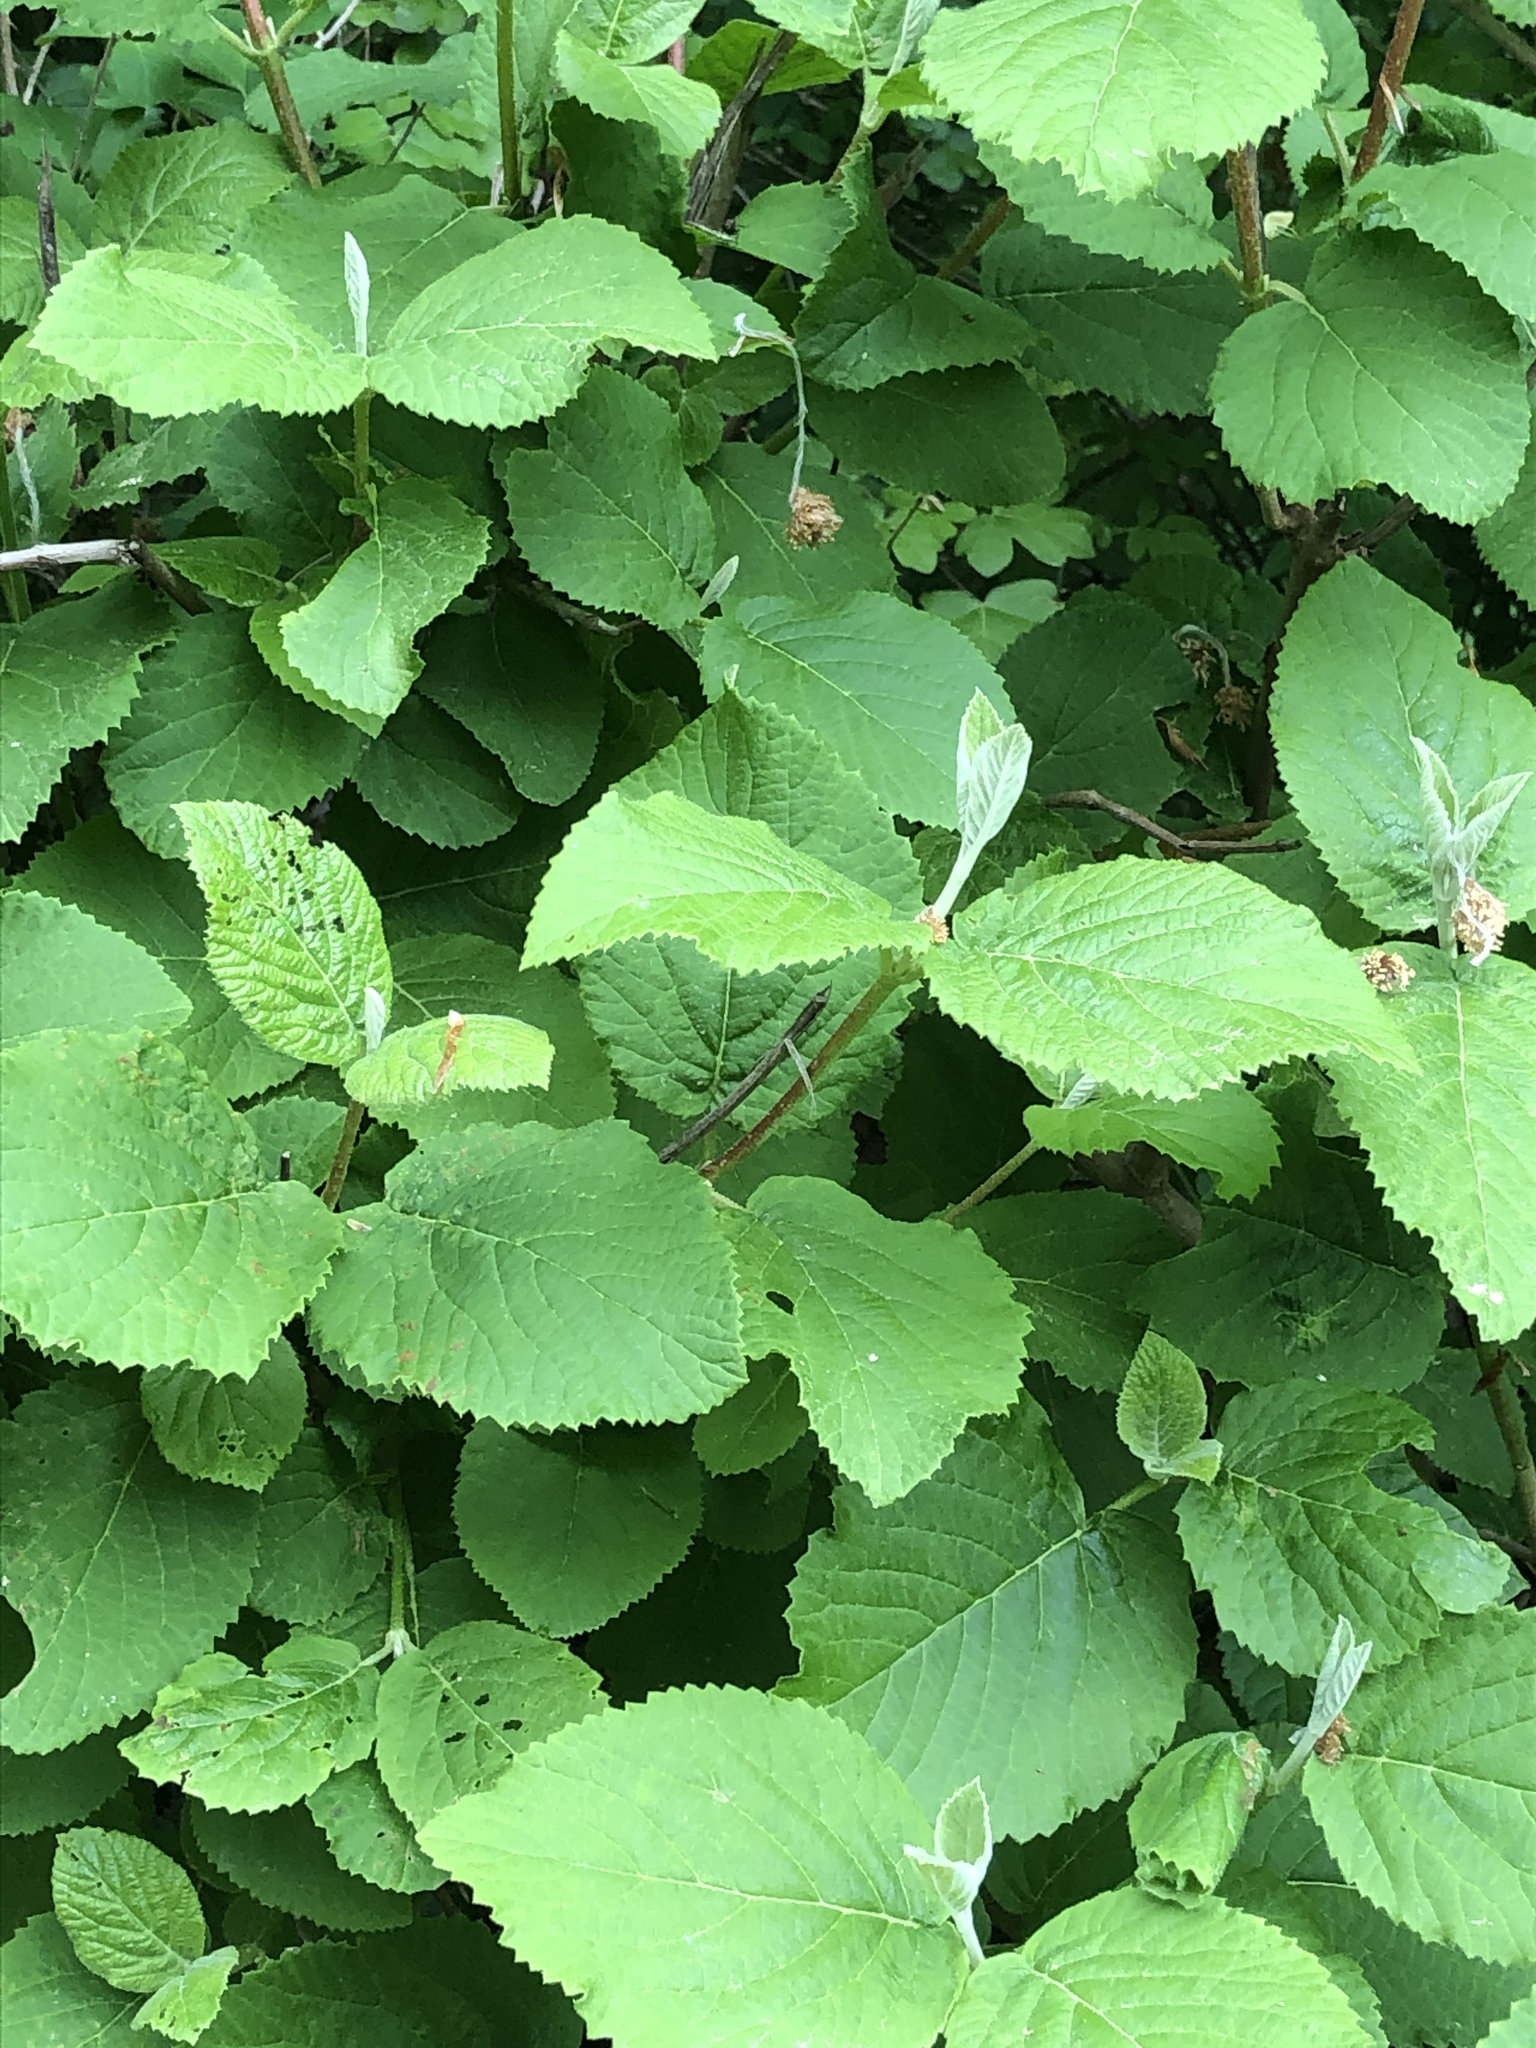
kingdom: Plantae
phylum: Tracheophyta
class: Magnoliopsida
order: Dipsacales
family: Viburnaceae
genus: Viburnum
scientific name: Viburnum lantana
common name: Wayfaring tree
